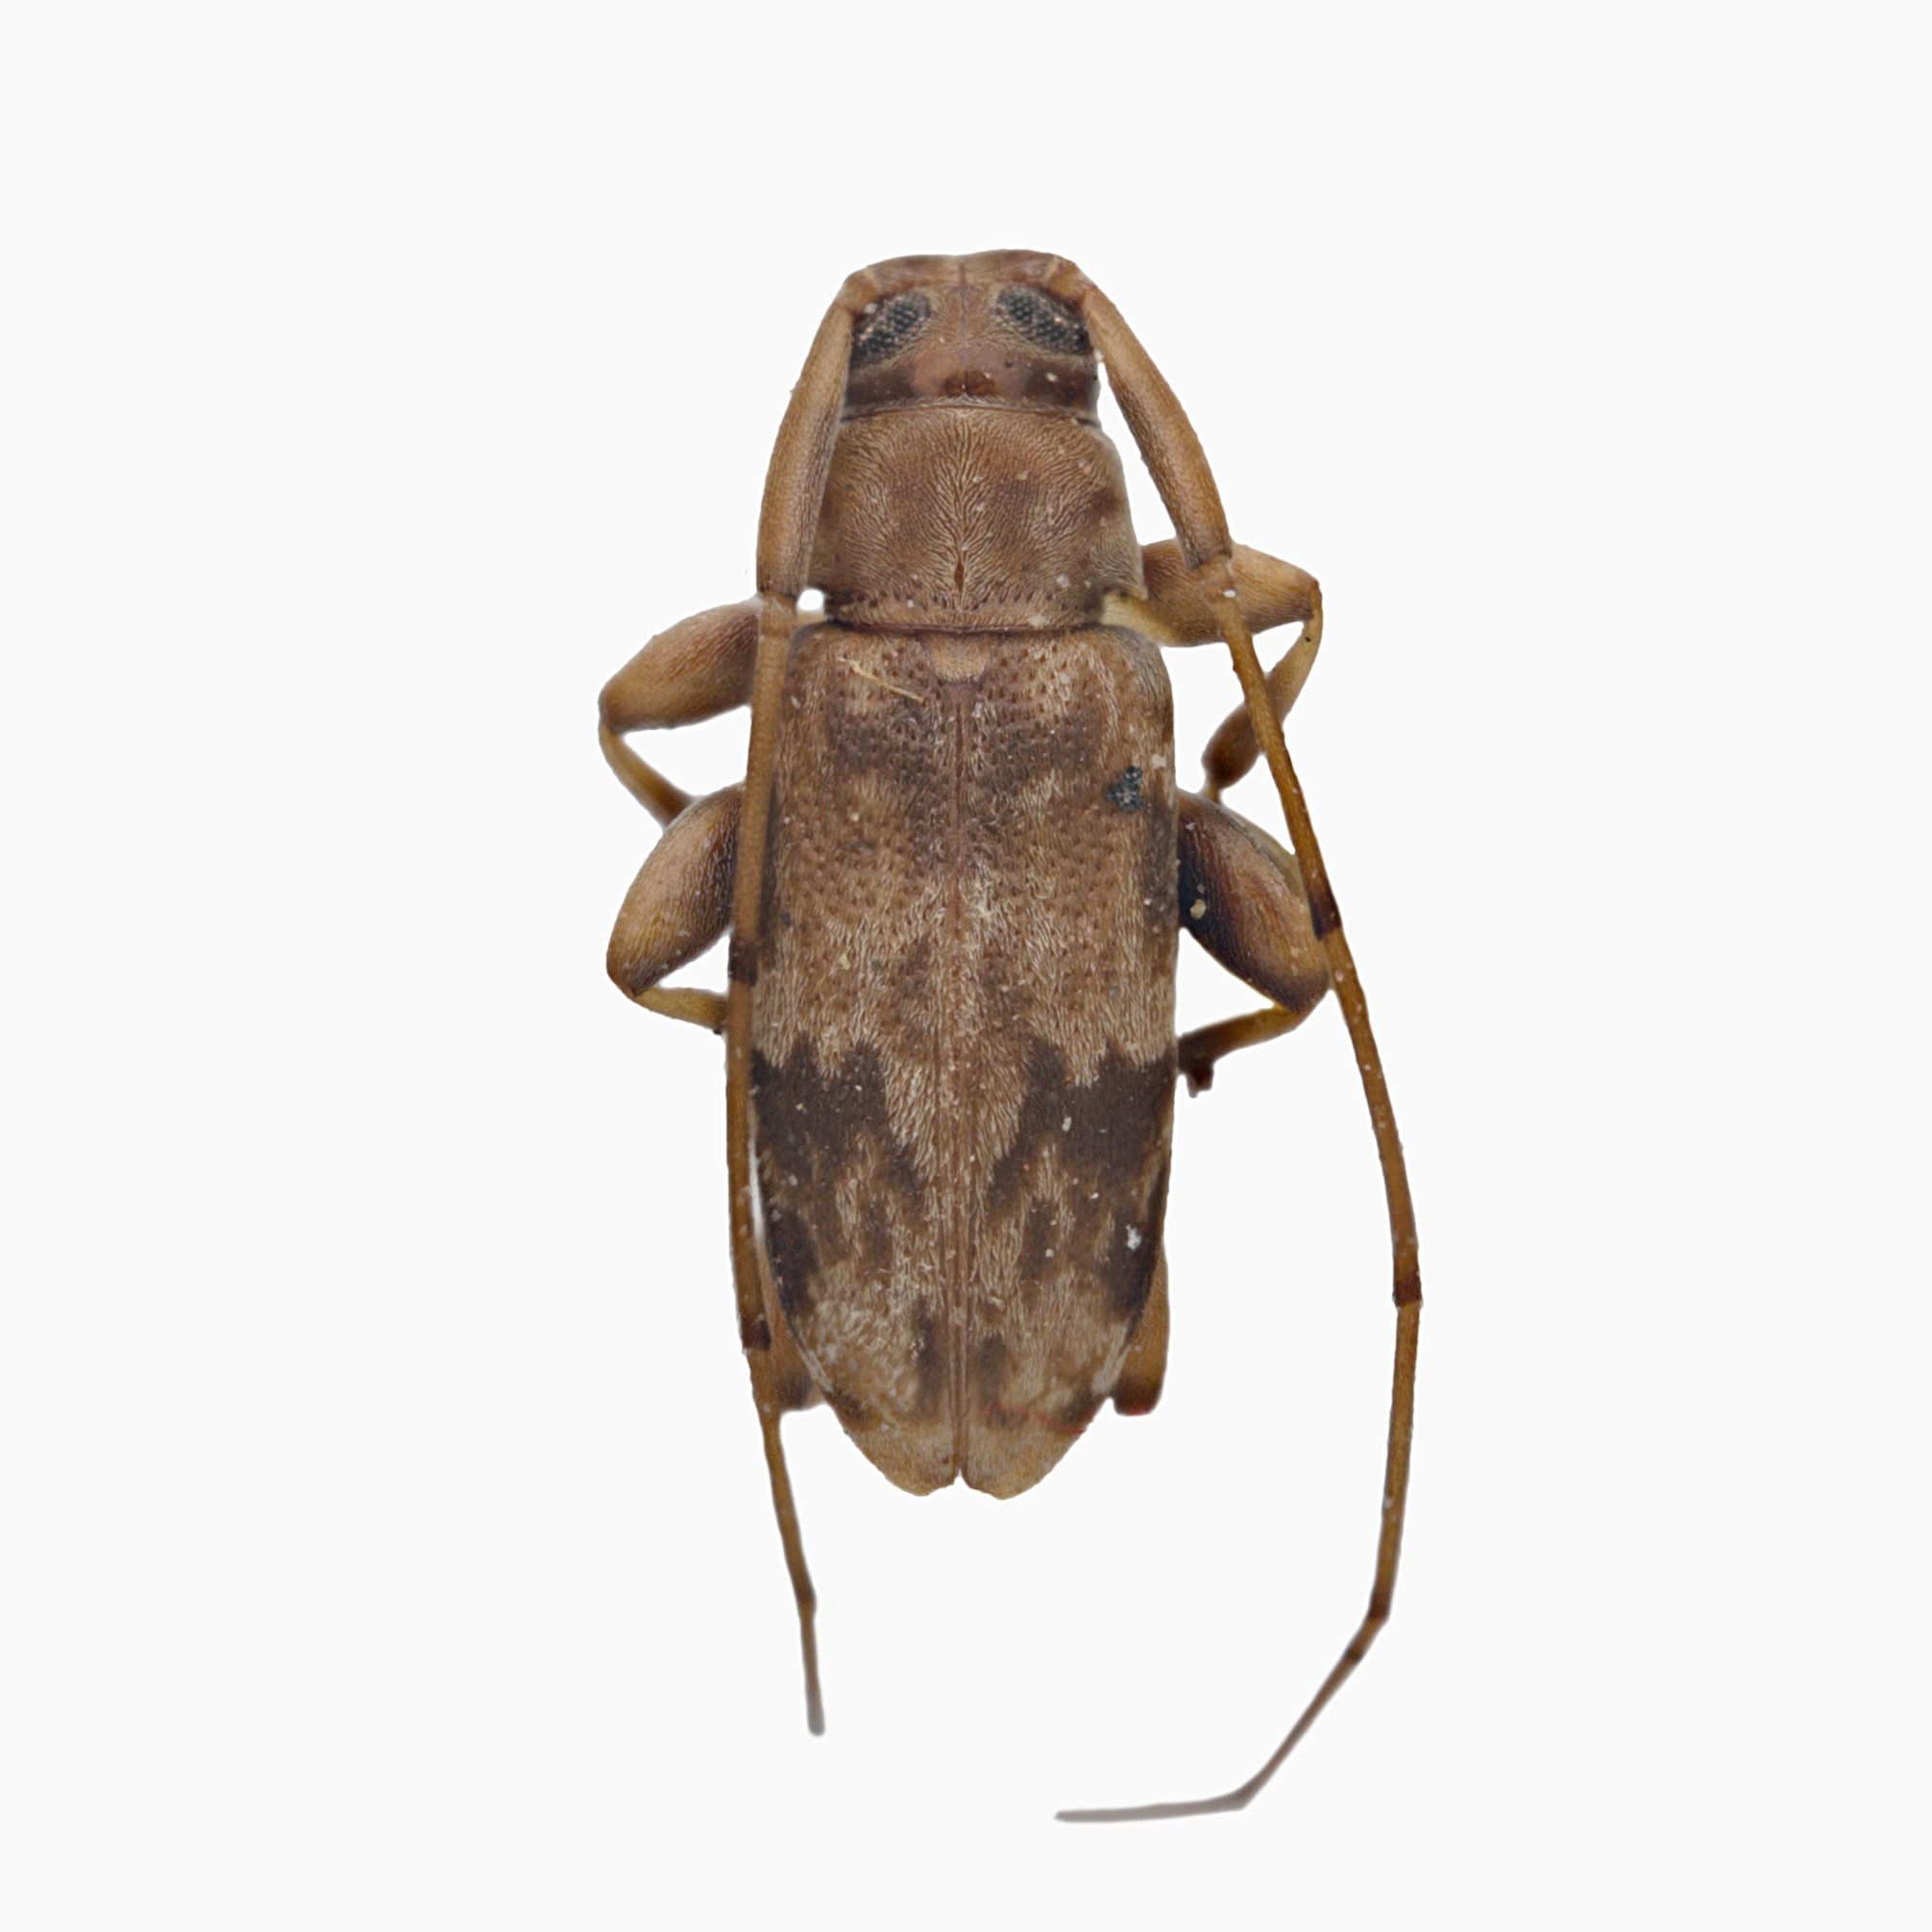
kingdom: Animalia
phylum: Arthropoda
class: Insecta
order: Coleoptera
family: Cerambycidae
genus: Urgleptes
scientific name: Urgleptes foveatocollis
